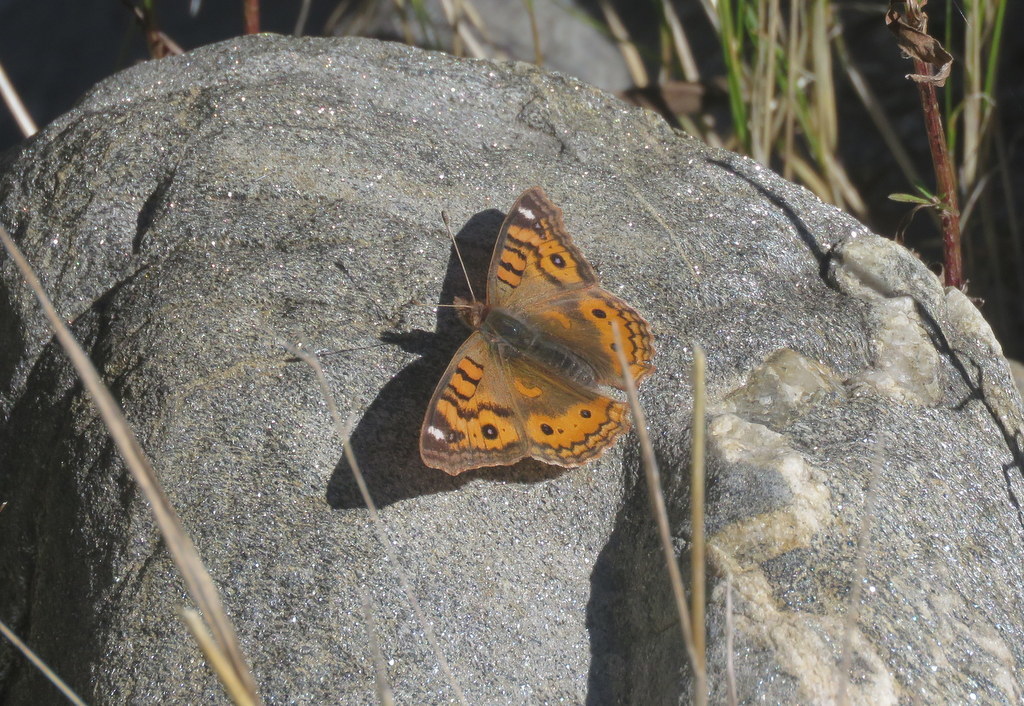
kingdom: Animalia
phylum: Arthropoda
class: Insecta
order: Lepidoptera
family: Nymphalidae
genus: Junonia
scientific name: Junonia vestina
